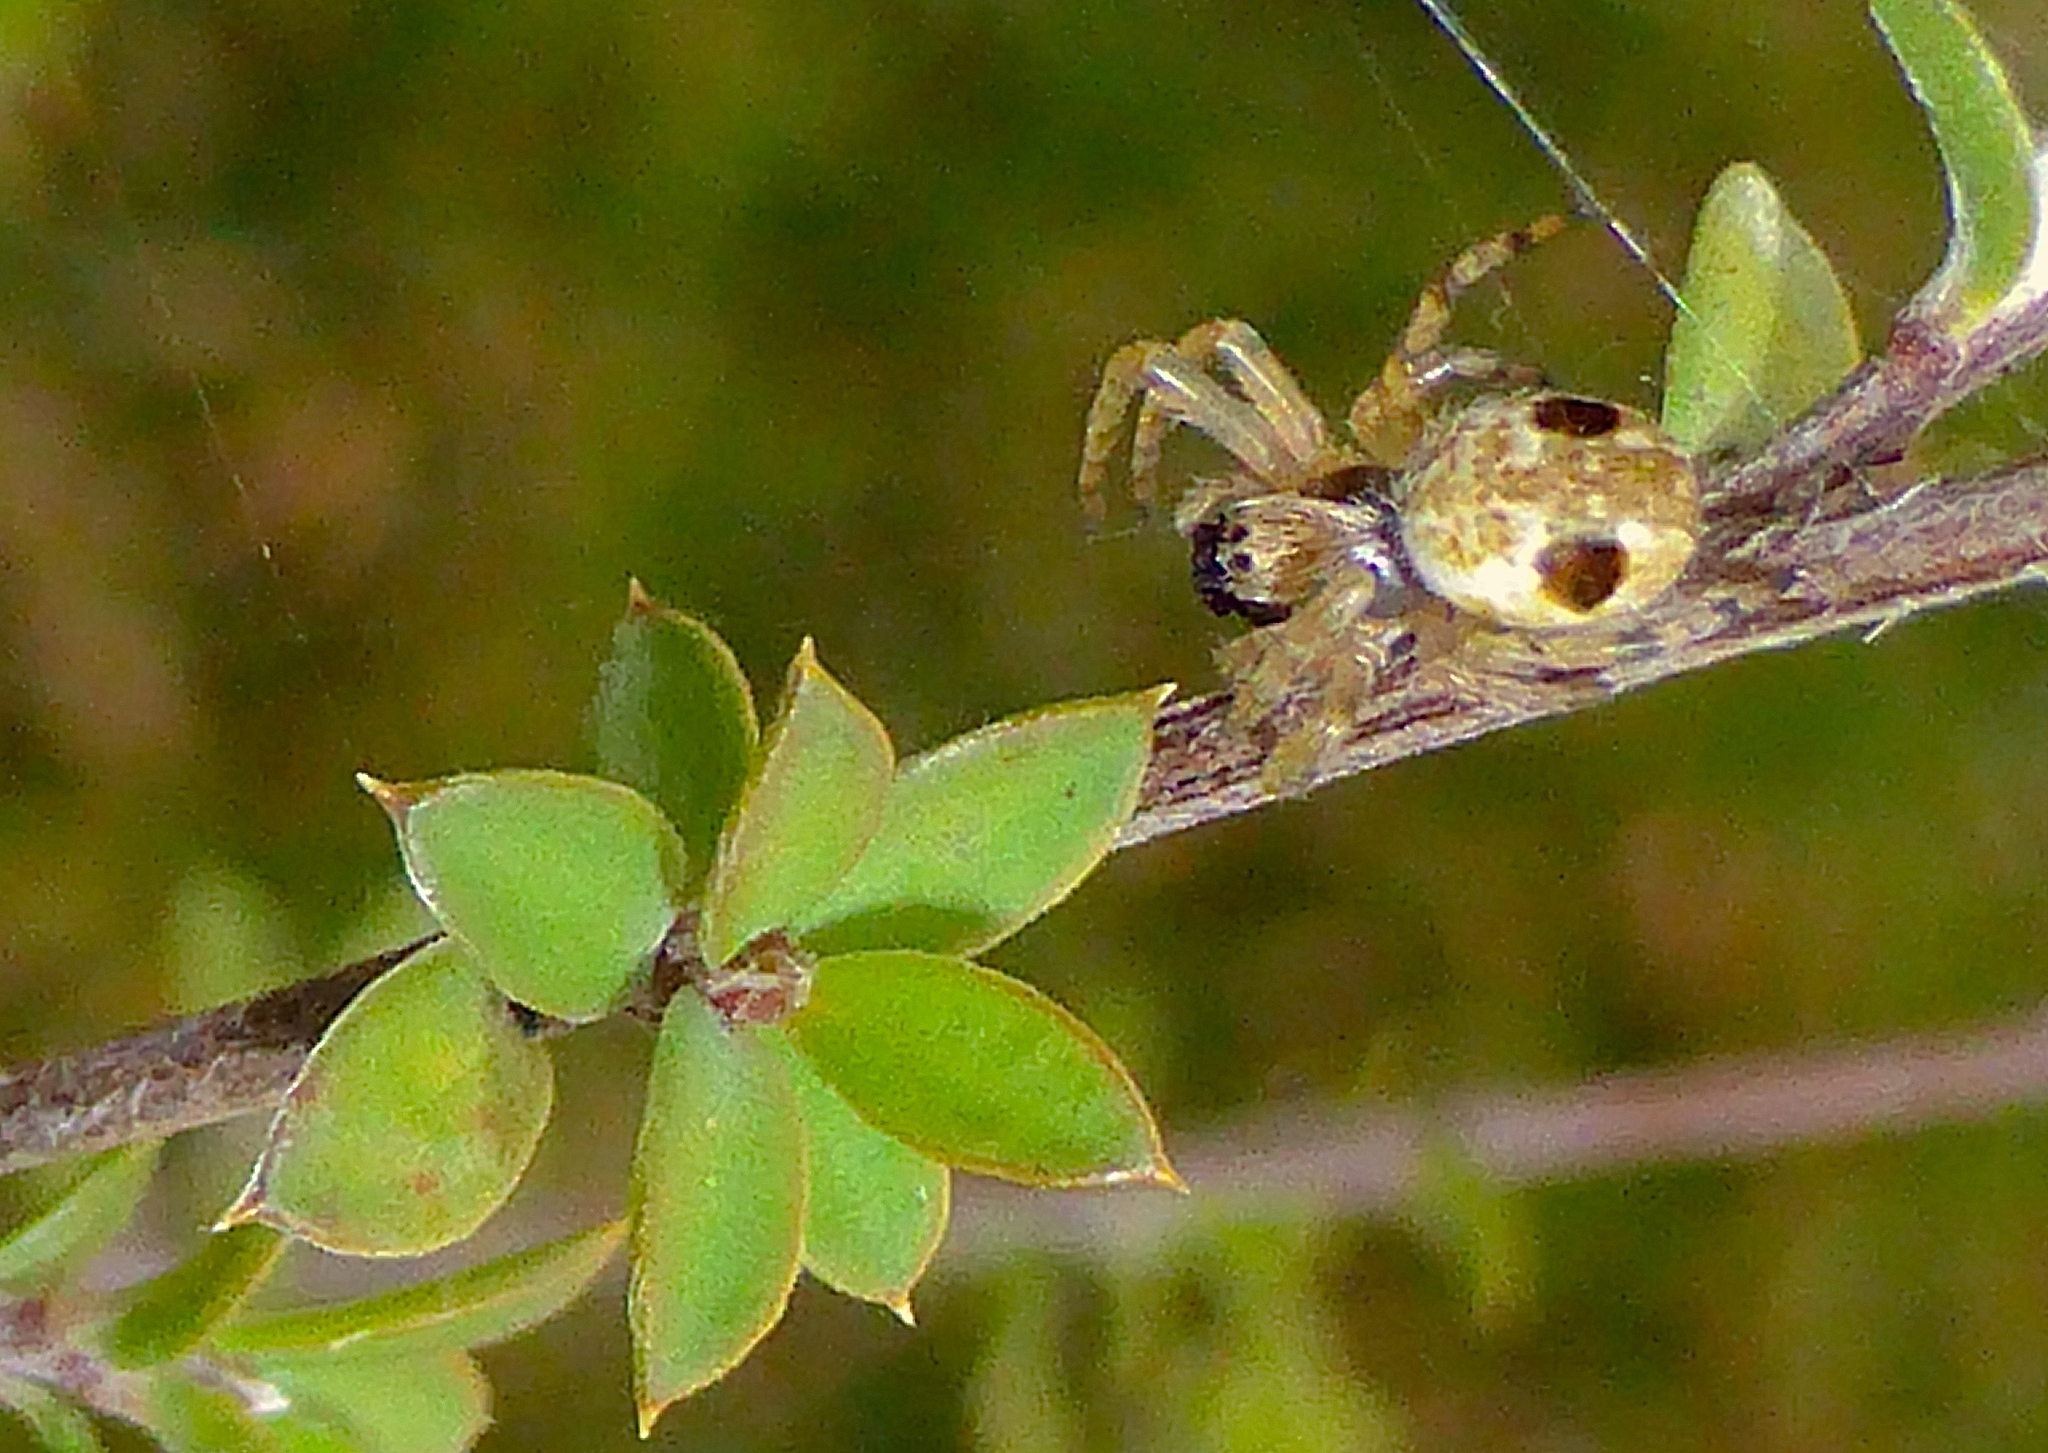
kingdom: Animalia
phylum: Arthropoda
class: Arachnida
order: Araneae
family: Araneidae
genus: Salsa
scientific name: Salsa fuliginata
